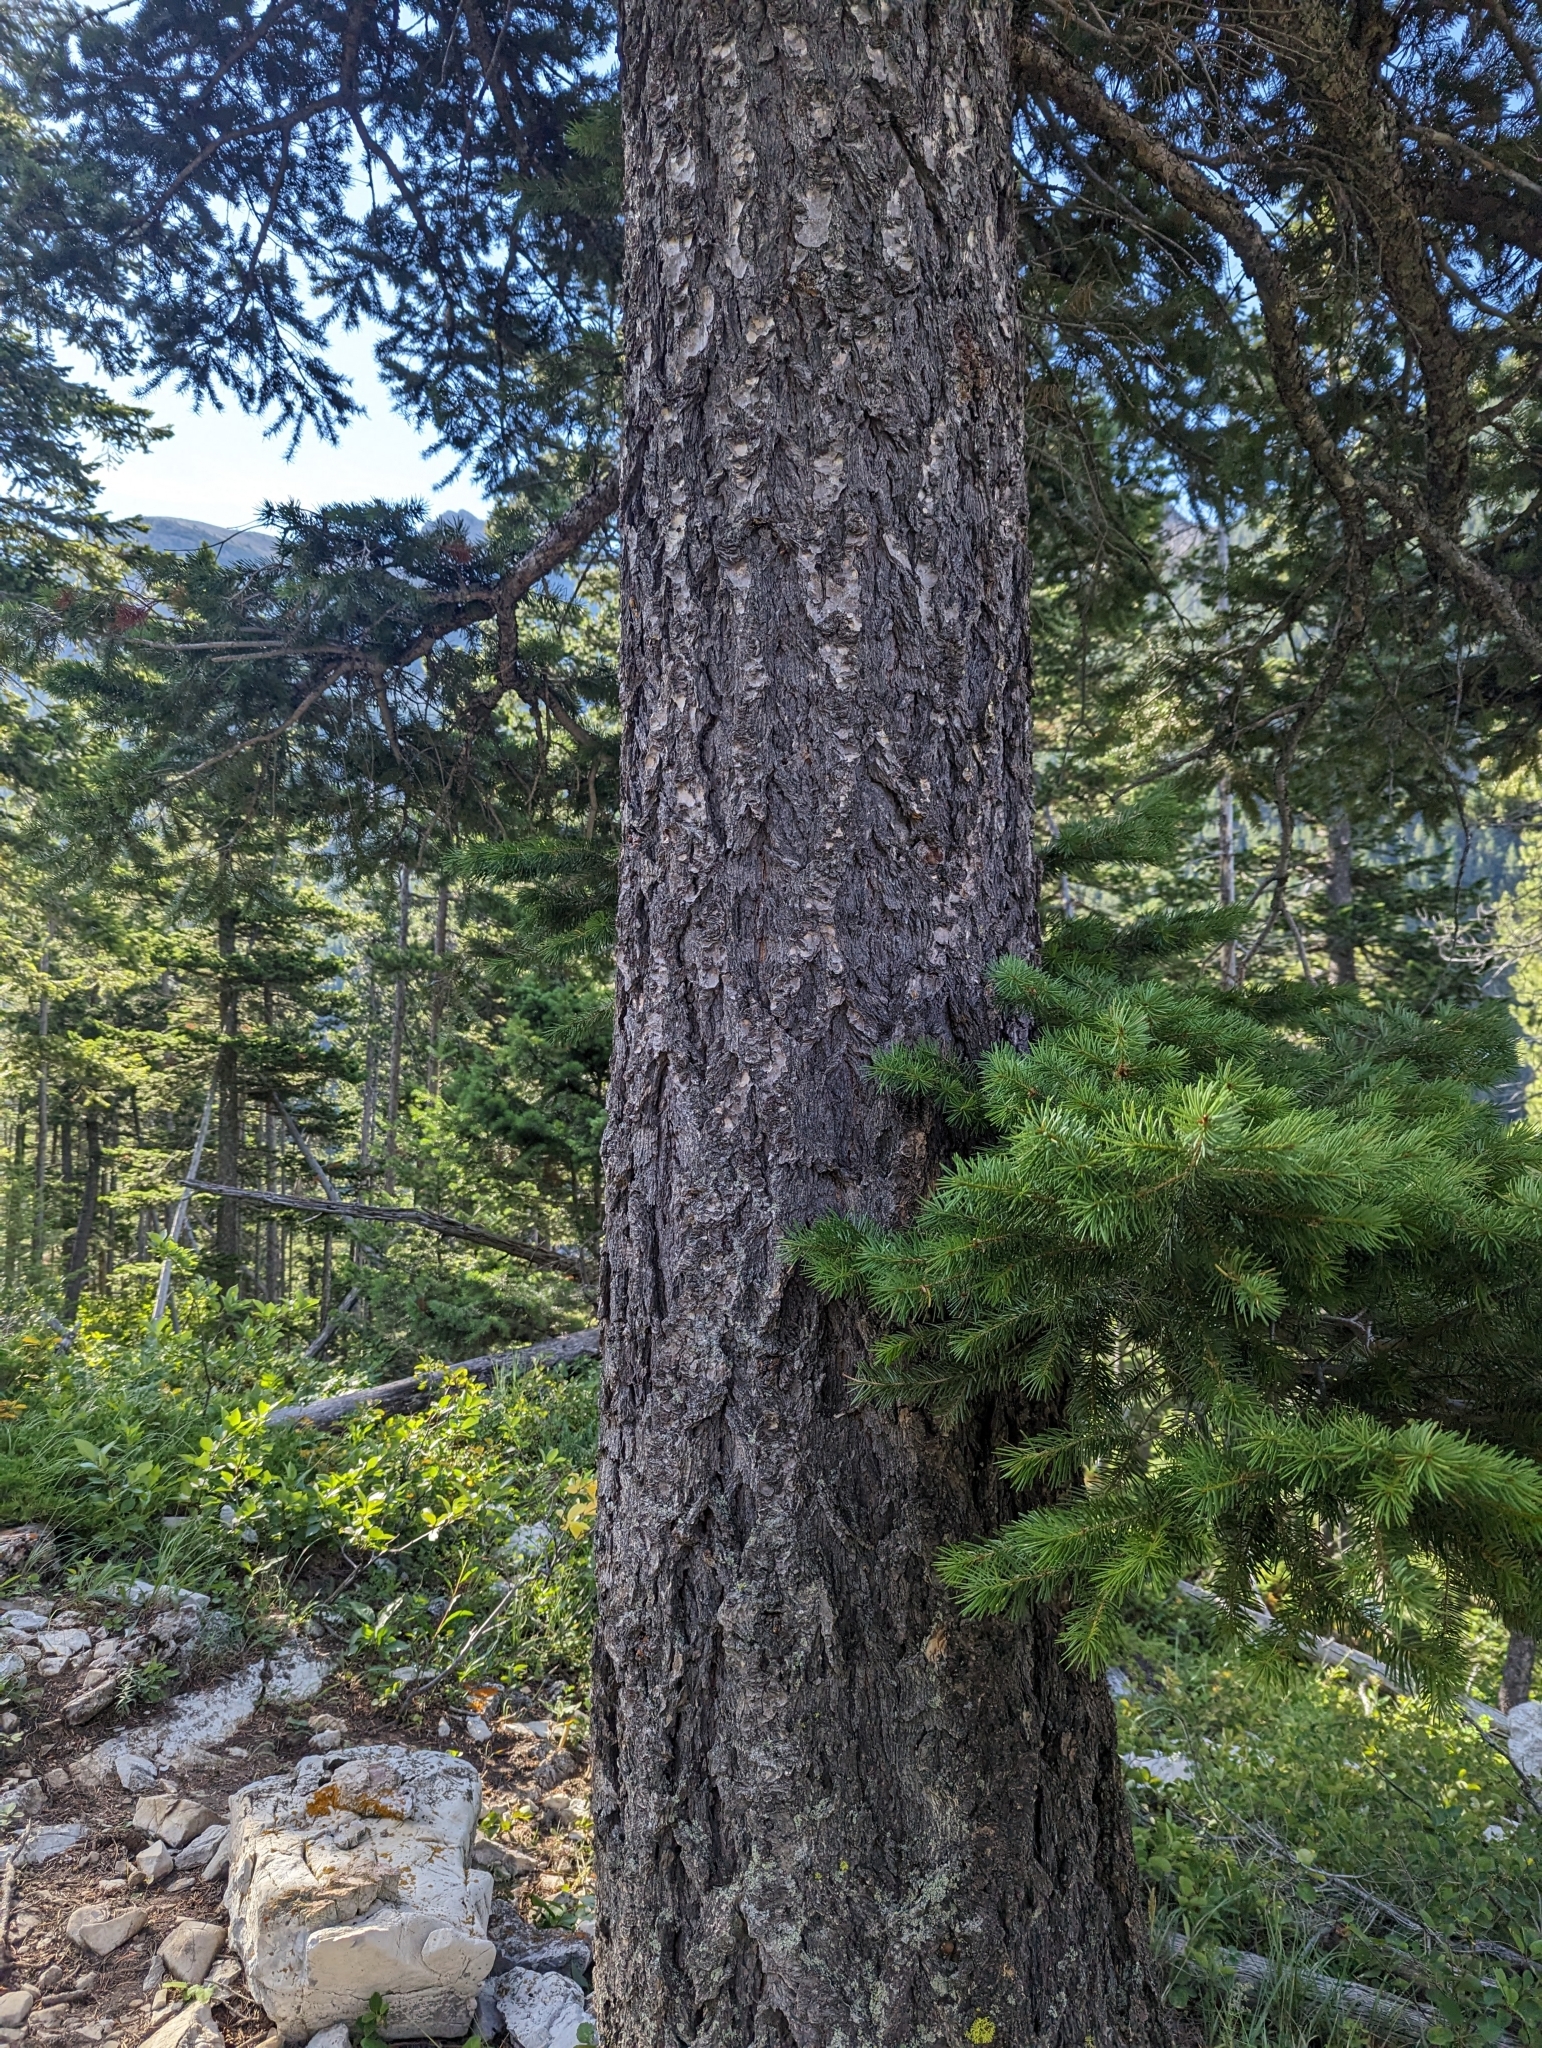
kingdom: Plantae
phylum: Tracheophyta
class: Pinopsida
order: Pinales
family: Pinaceae
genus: Pseudotsuga
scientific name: Pseudotsuga menziesii
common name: Douglas fir
